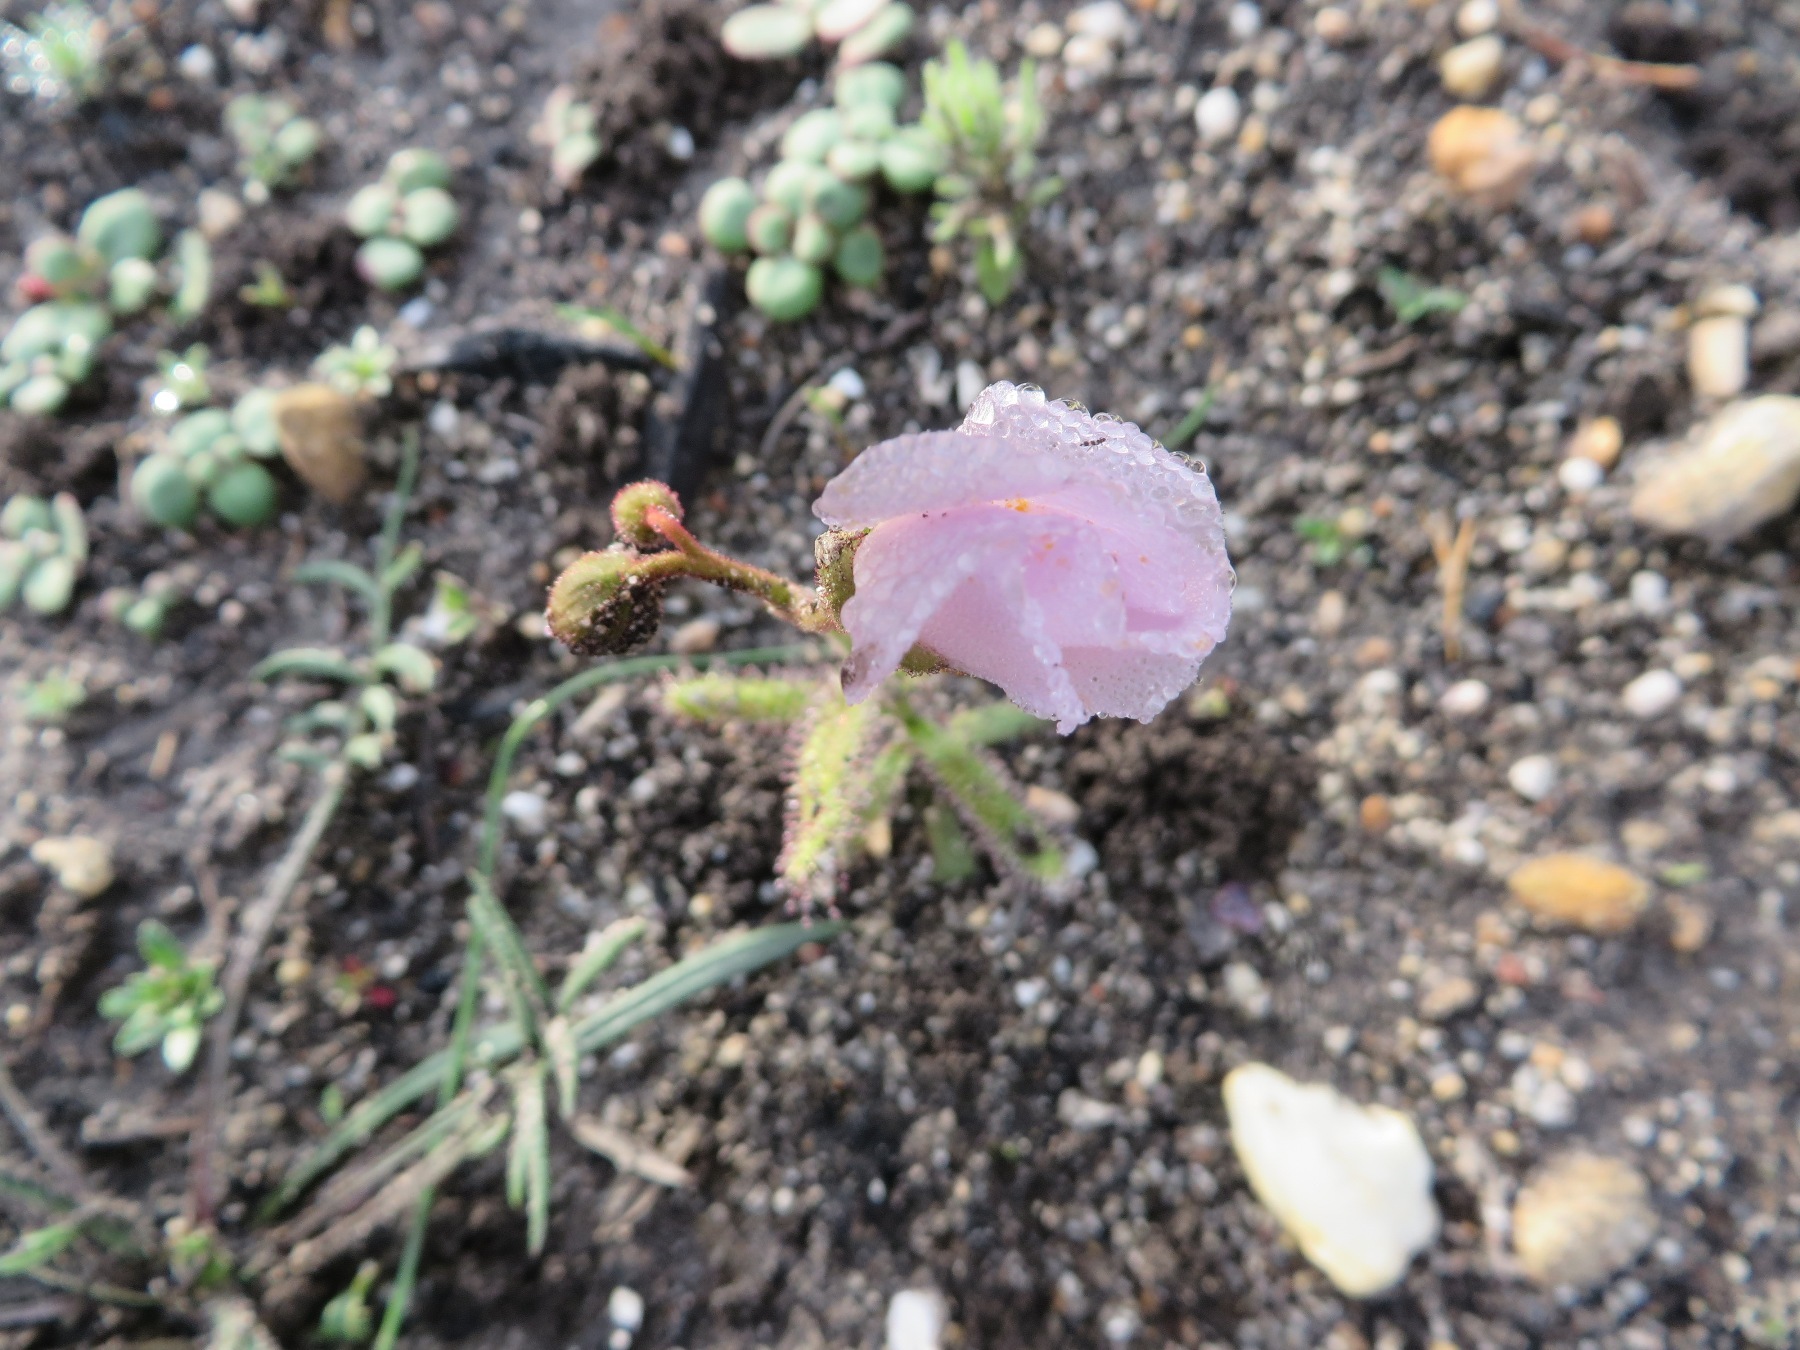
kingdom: Plantae
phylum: Tracheophyta
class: Magnoliopsida
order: Caryophyllales
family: Droseraceae
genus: Drosera
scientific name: Drosera cistiflora
